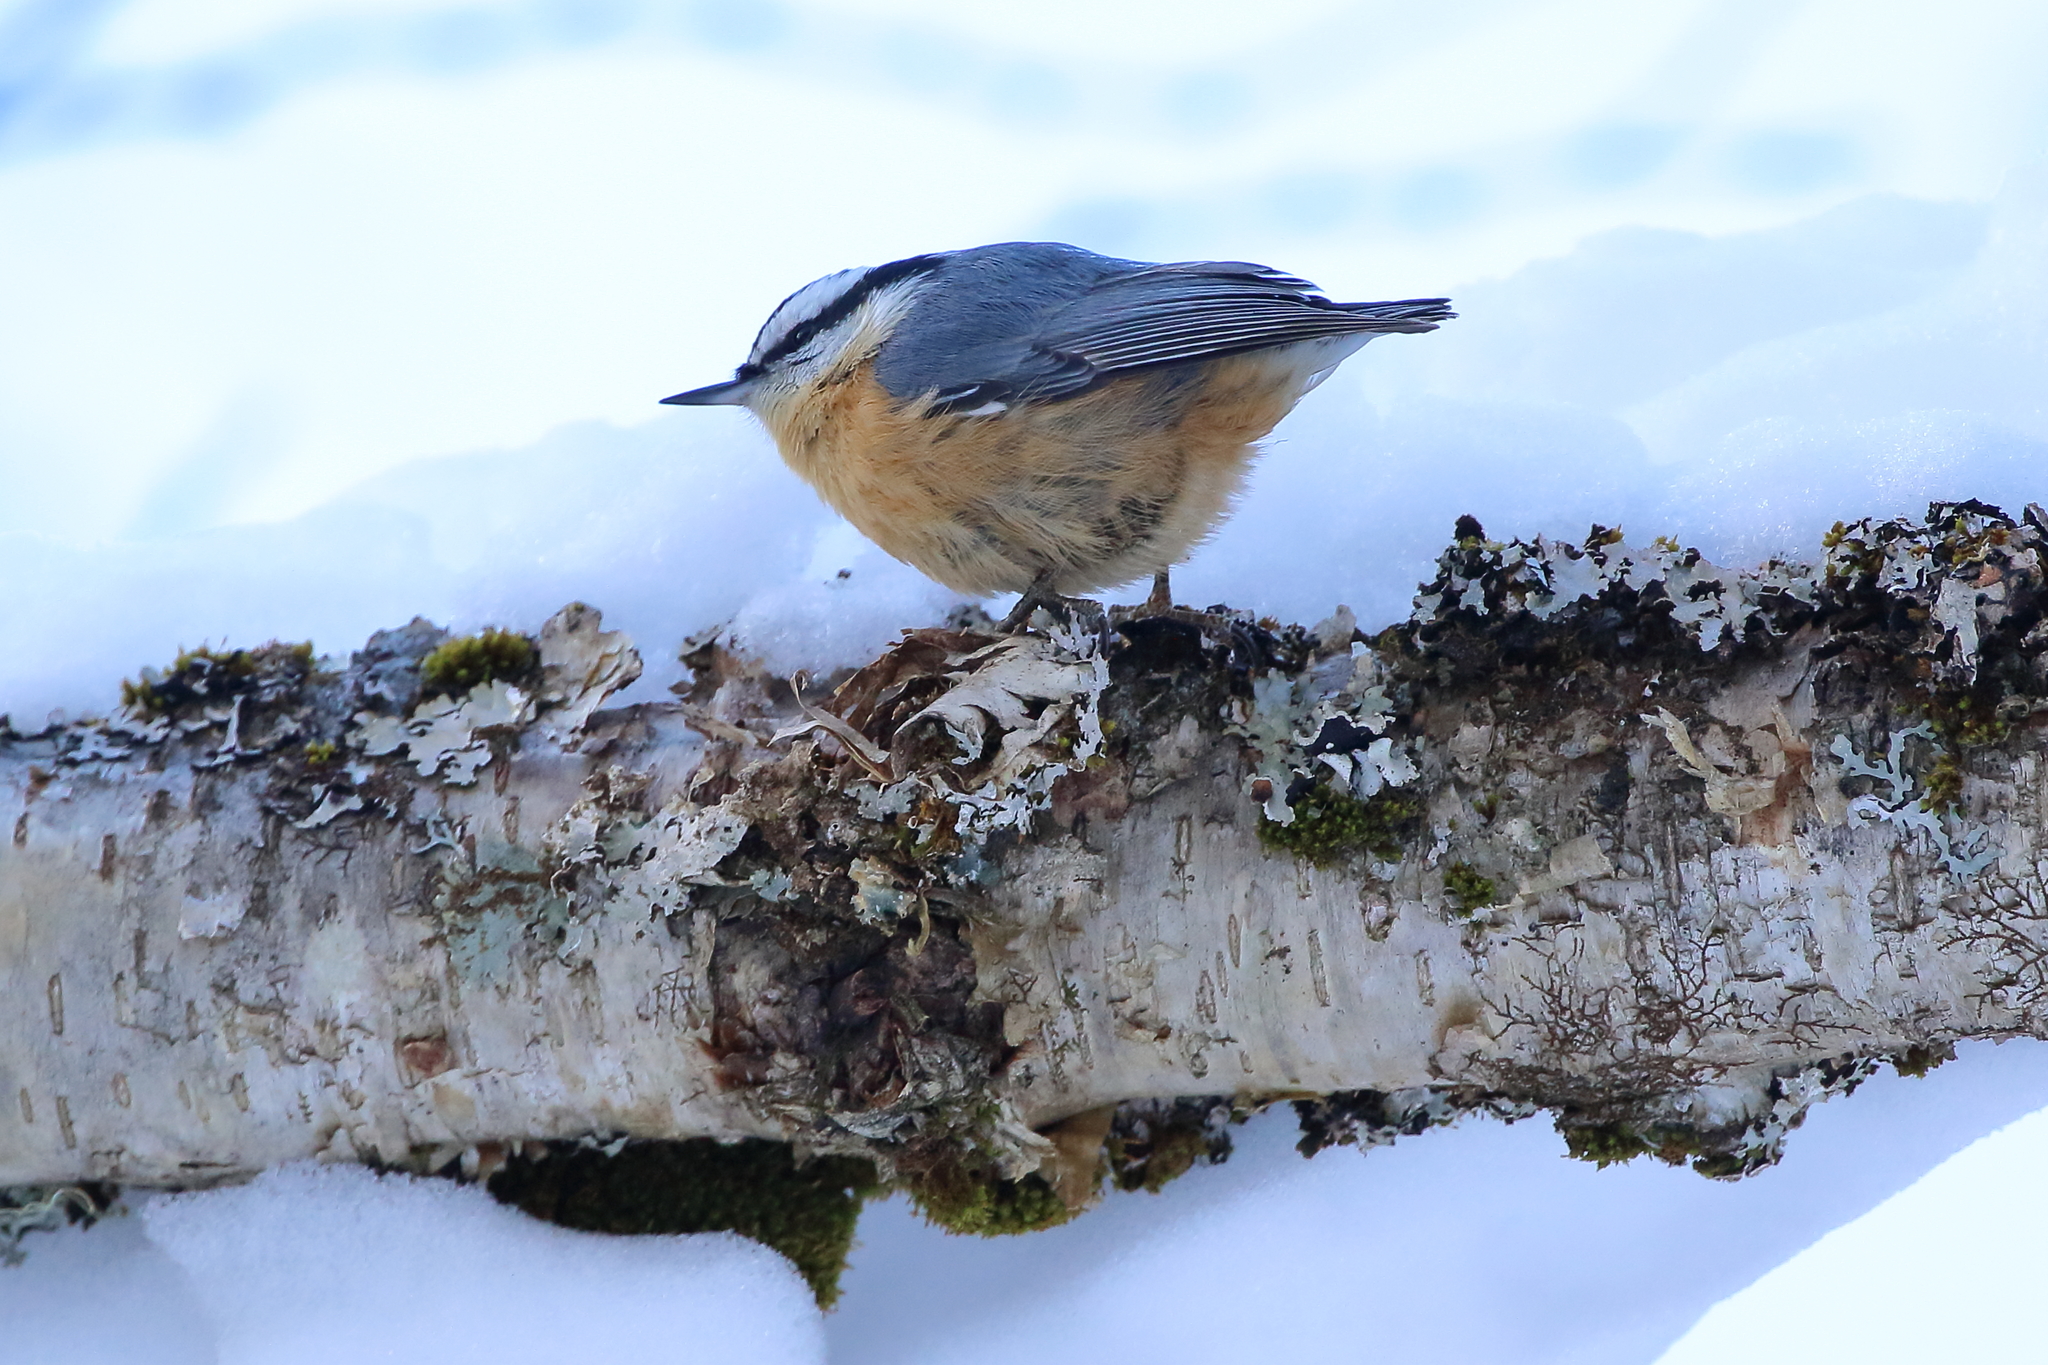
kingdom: Animalia
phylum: Chordata
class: Aves
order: Passeriformes
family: Sittidae
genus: Sitta
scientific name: Sitta canadensis
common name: Red-breasted nuthatch
